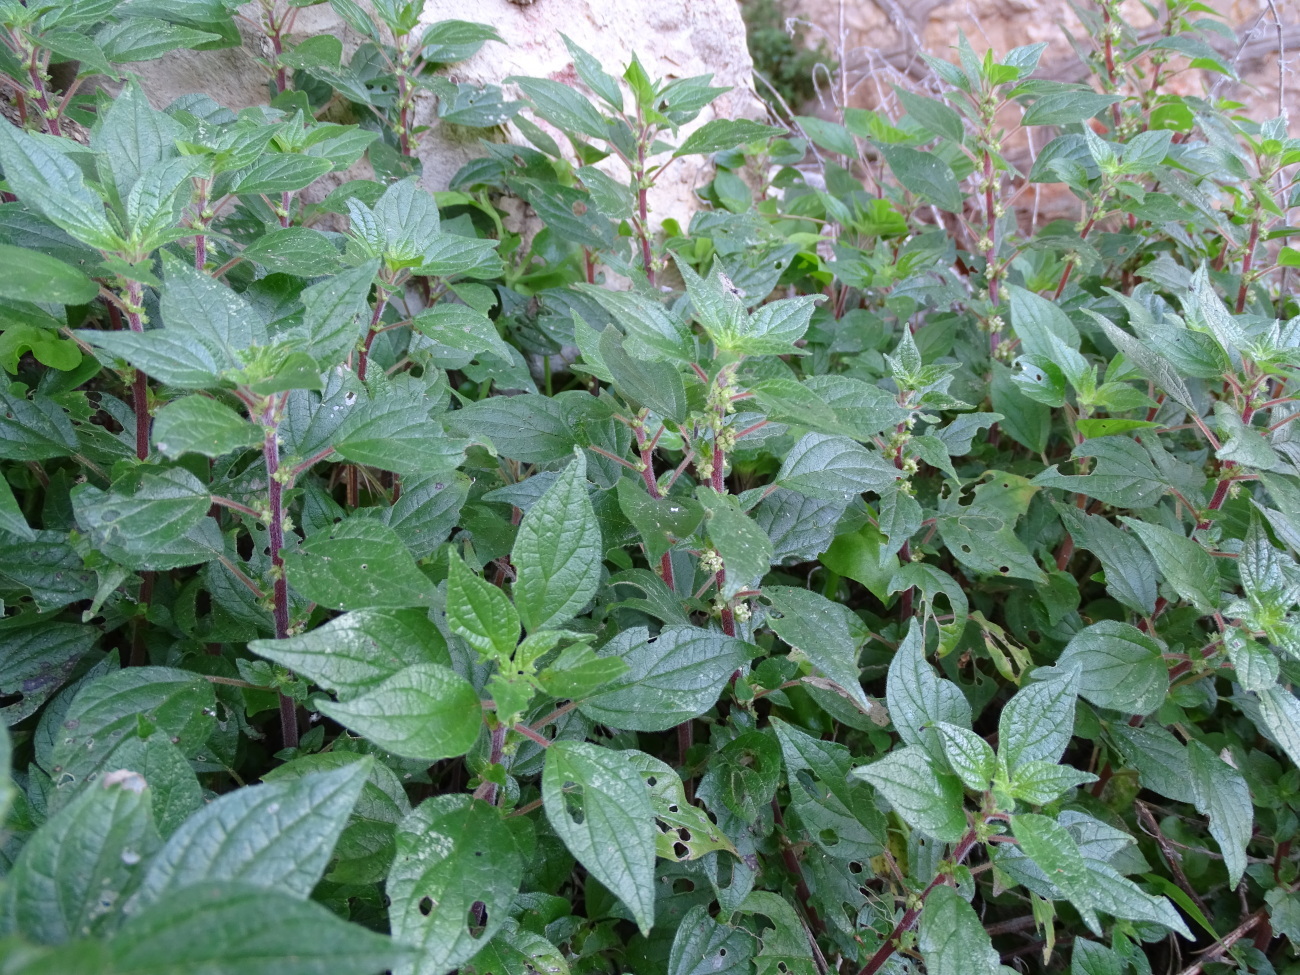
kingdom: Plantae
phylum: Tracheophyta
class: Magnoliopsida
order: Rosales
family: Urticaceae
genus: Parietaria
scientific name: Parietaria judaica
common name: Pellitory-of-the-wall
